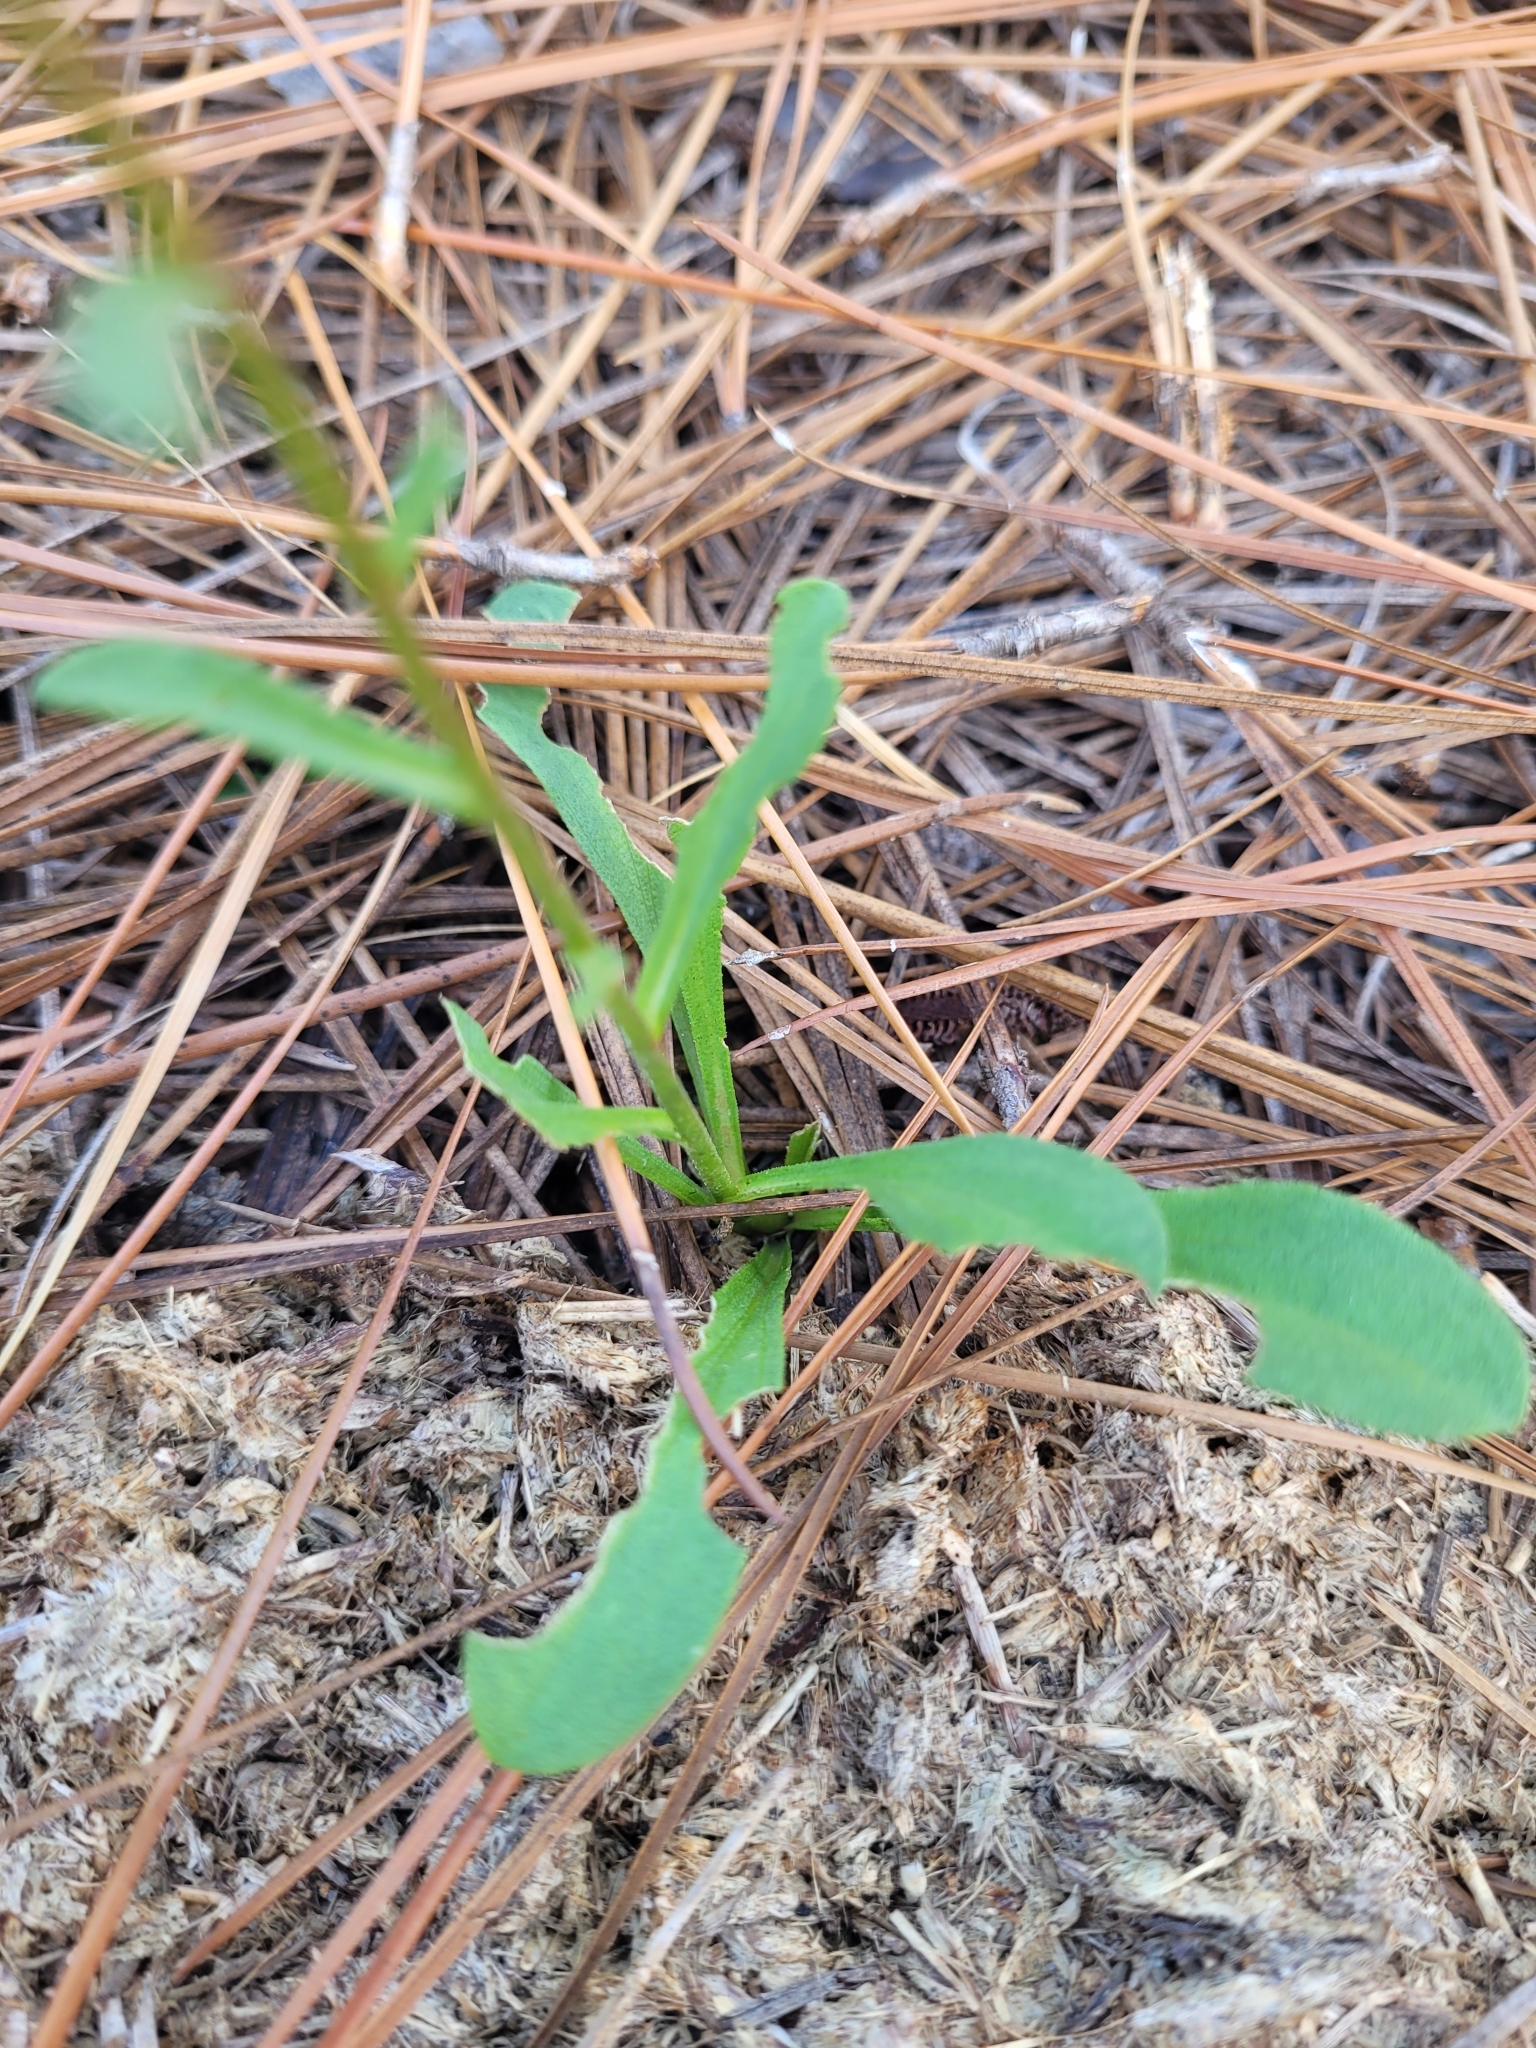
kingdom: Plantae
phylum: Tracheophyta
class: Magnoliopsida
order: Asterales
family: Asteraceae
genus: Carphephorus
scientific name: Carphephorus bellidifolius
